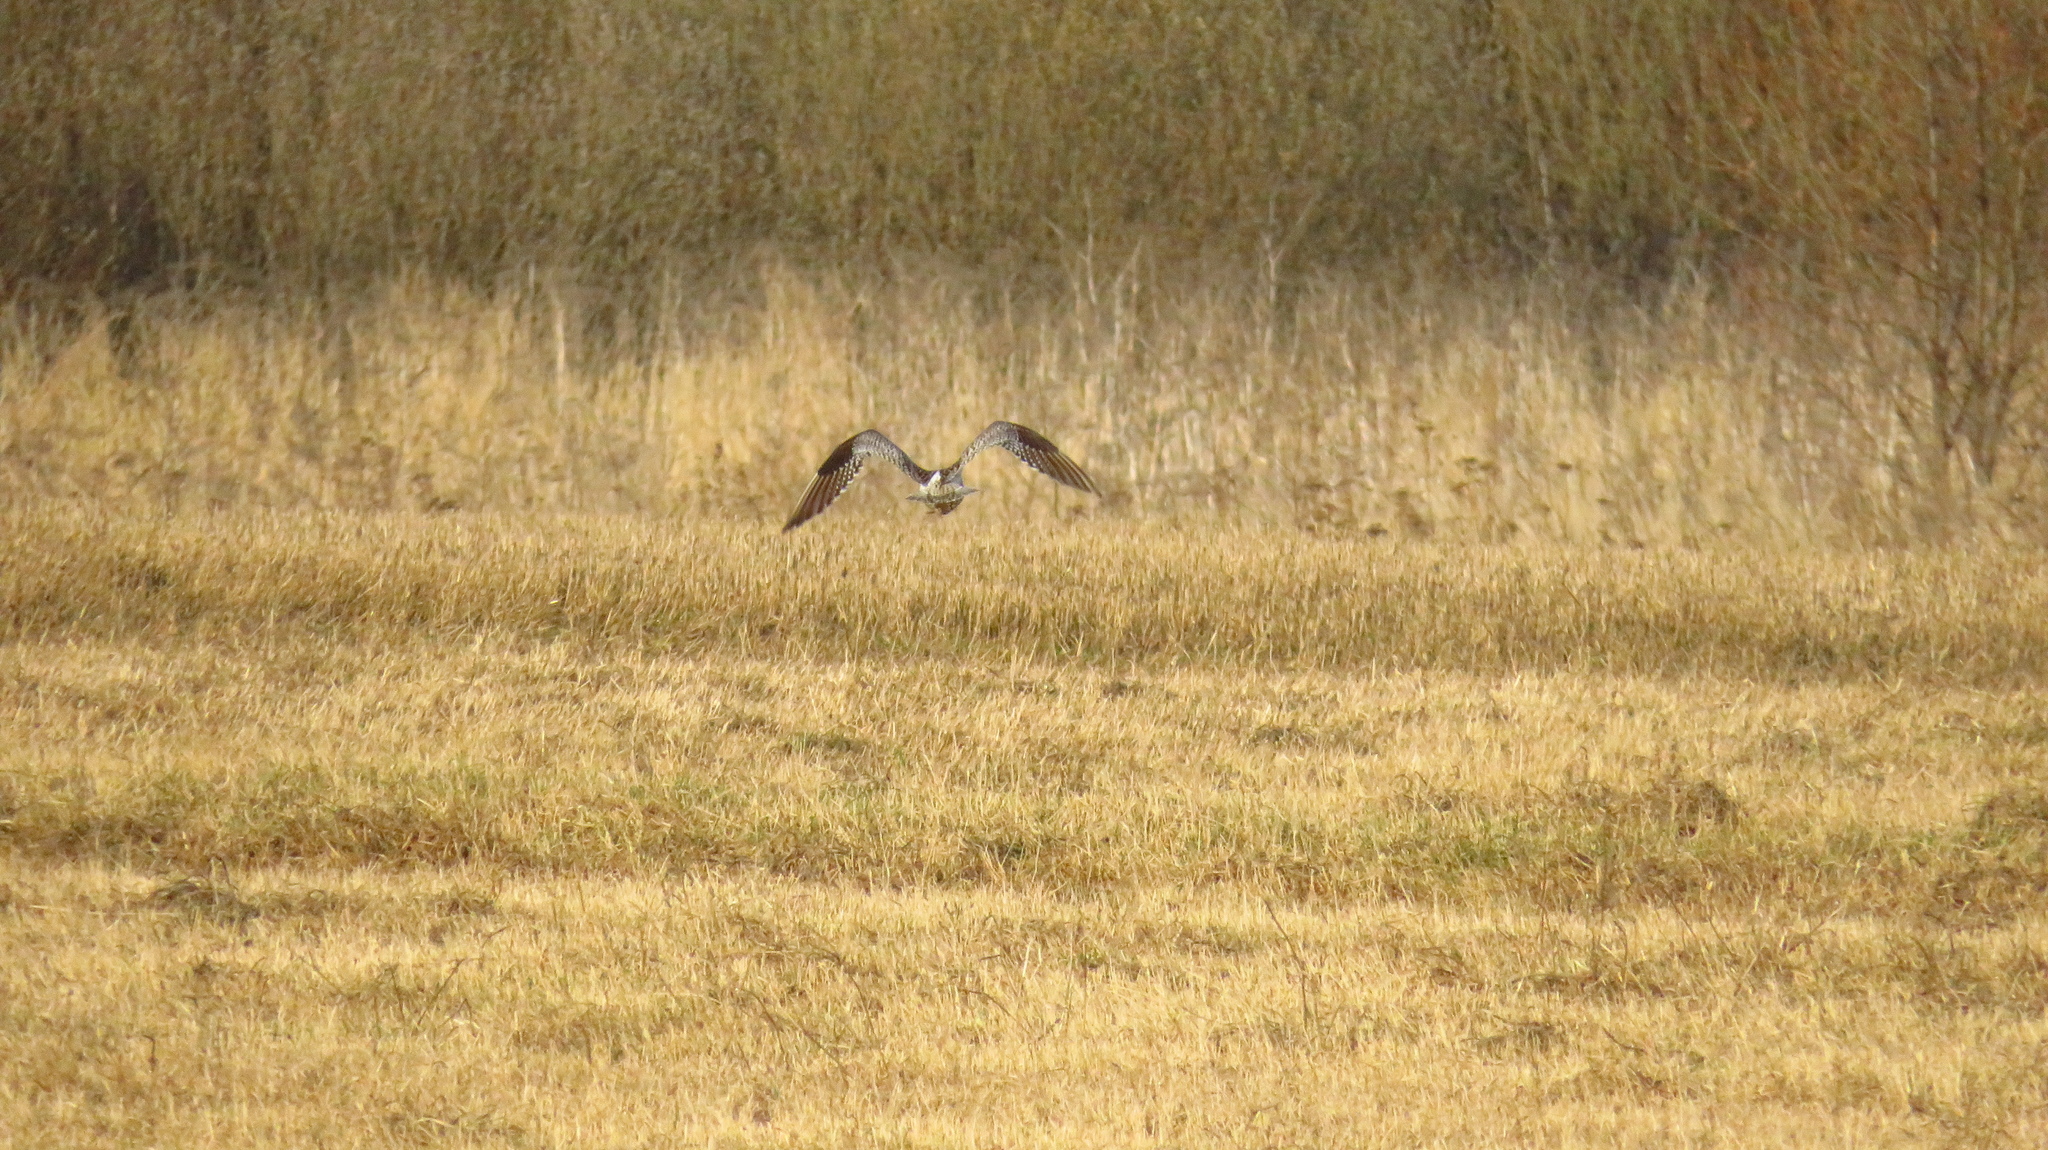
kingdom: Animalia
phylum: Chordata
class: Aves
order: Charadriiformes
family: Scolopacidae
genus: Numenius
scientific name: Numenius arquata
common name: Eurasian curlew
